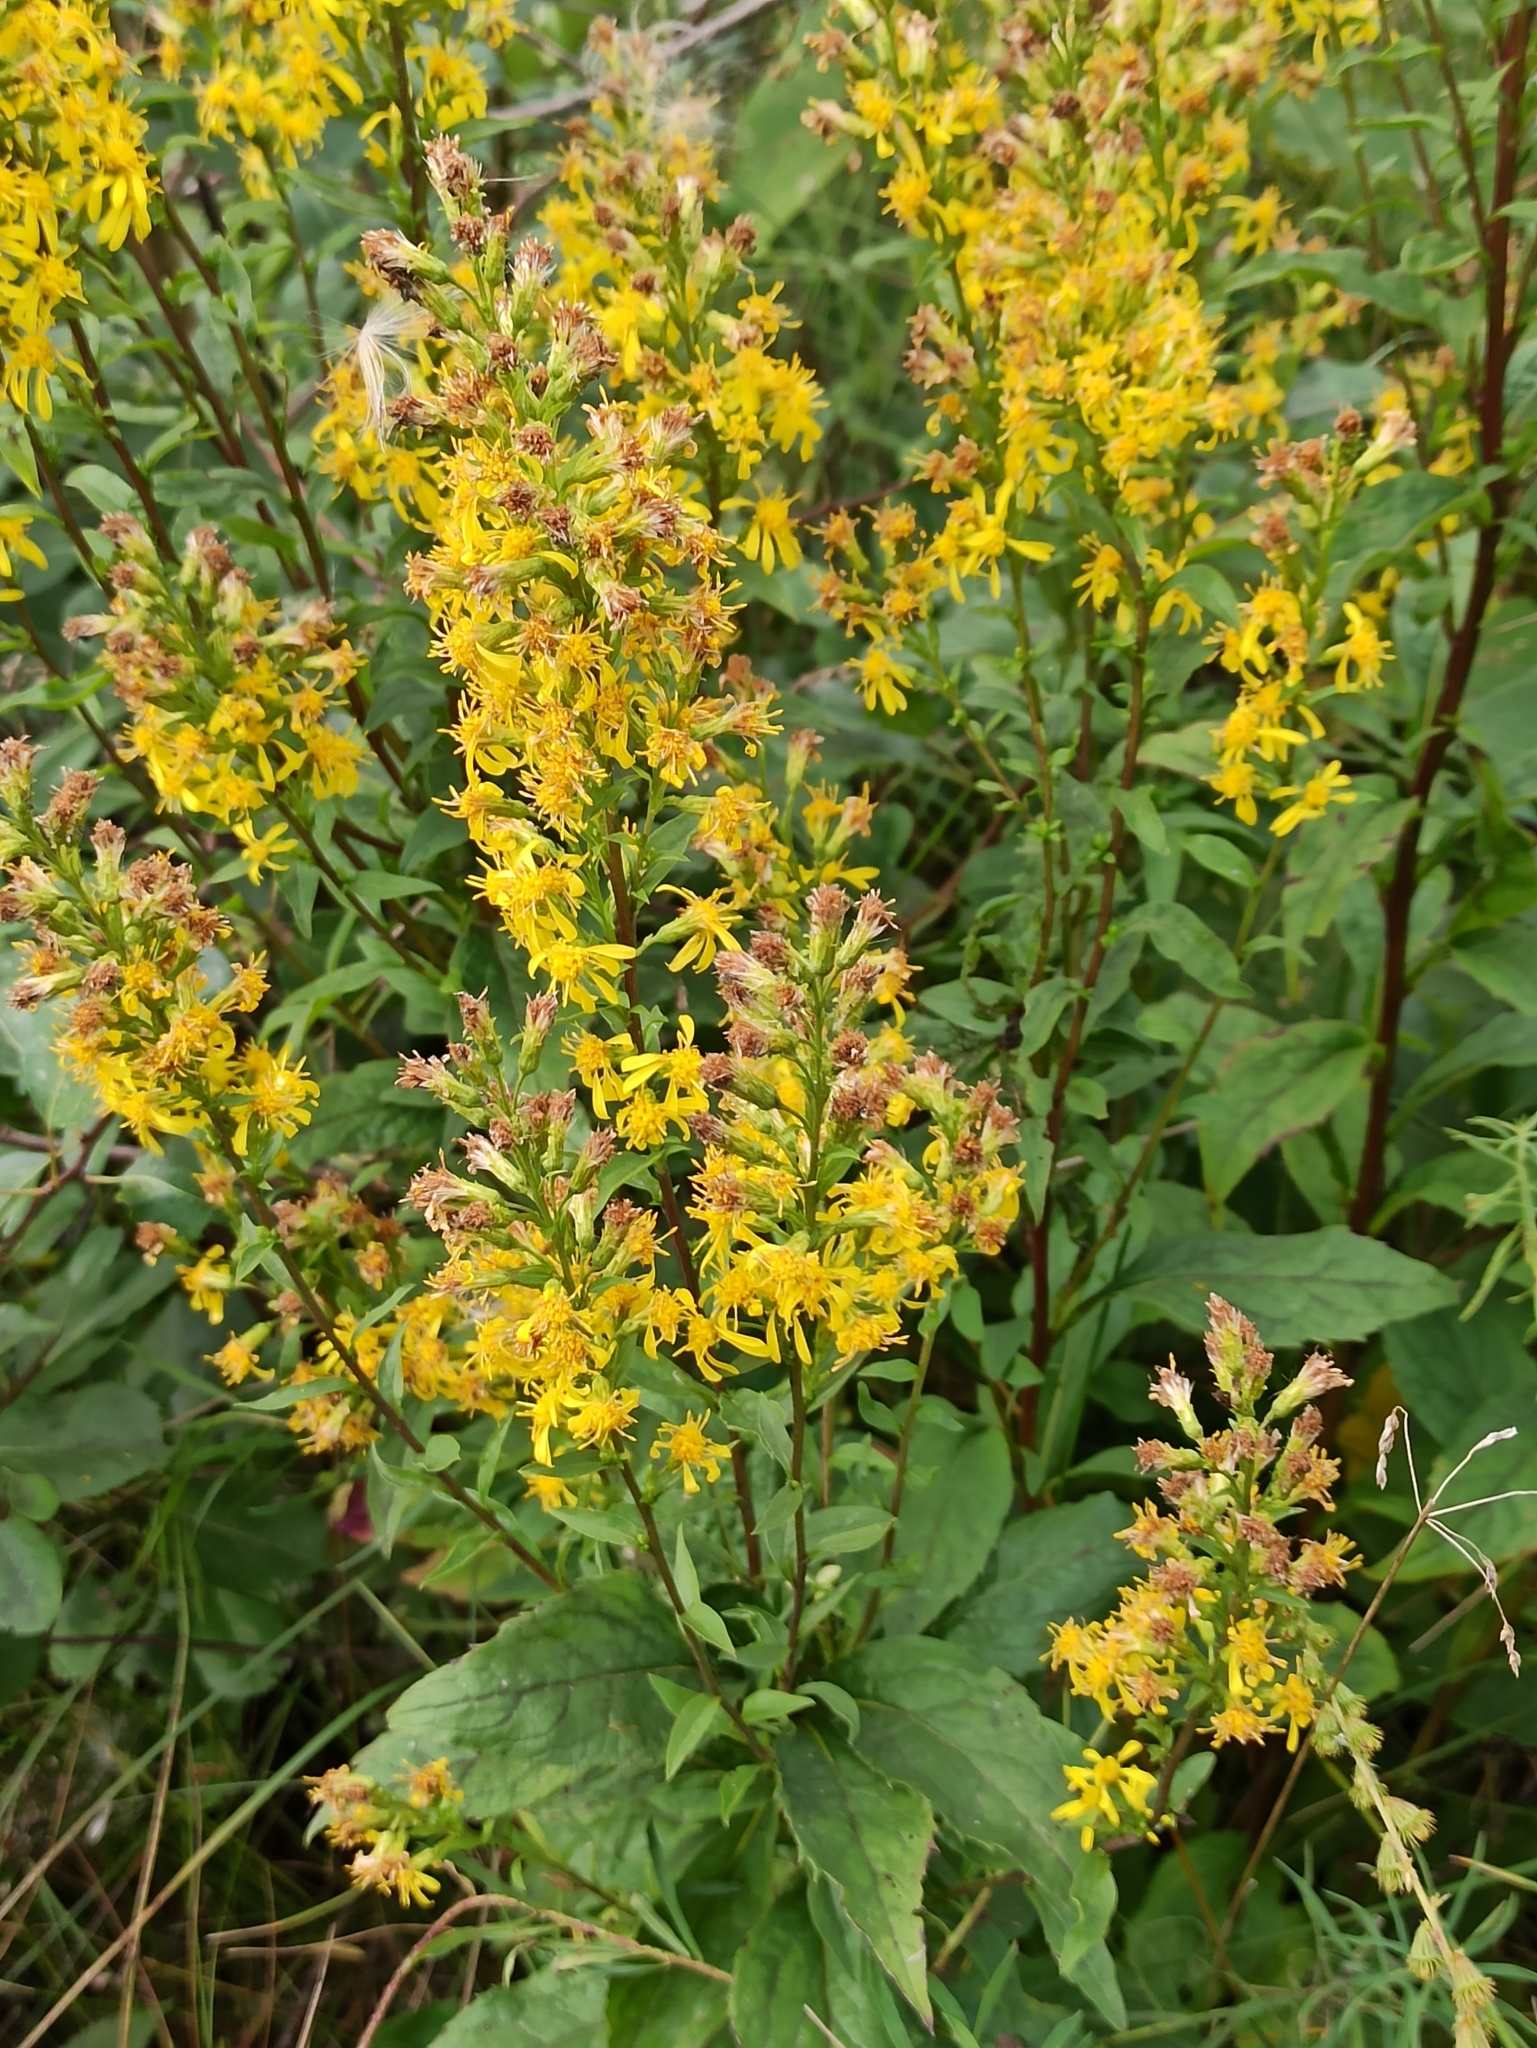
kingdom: Plantae
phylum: Tracheophyta
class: Magnoliopsida
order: Asterales
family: Asteraceae
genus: Solidago
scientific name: Solidago virgaurea
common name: Goldenrod
